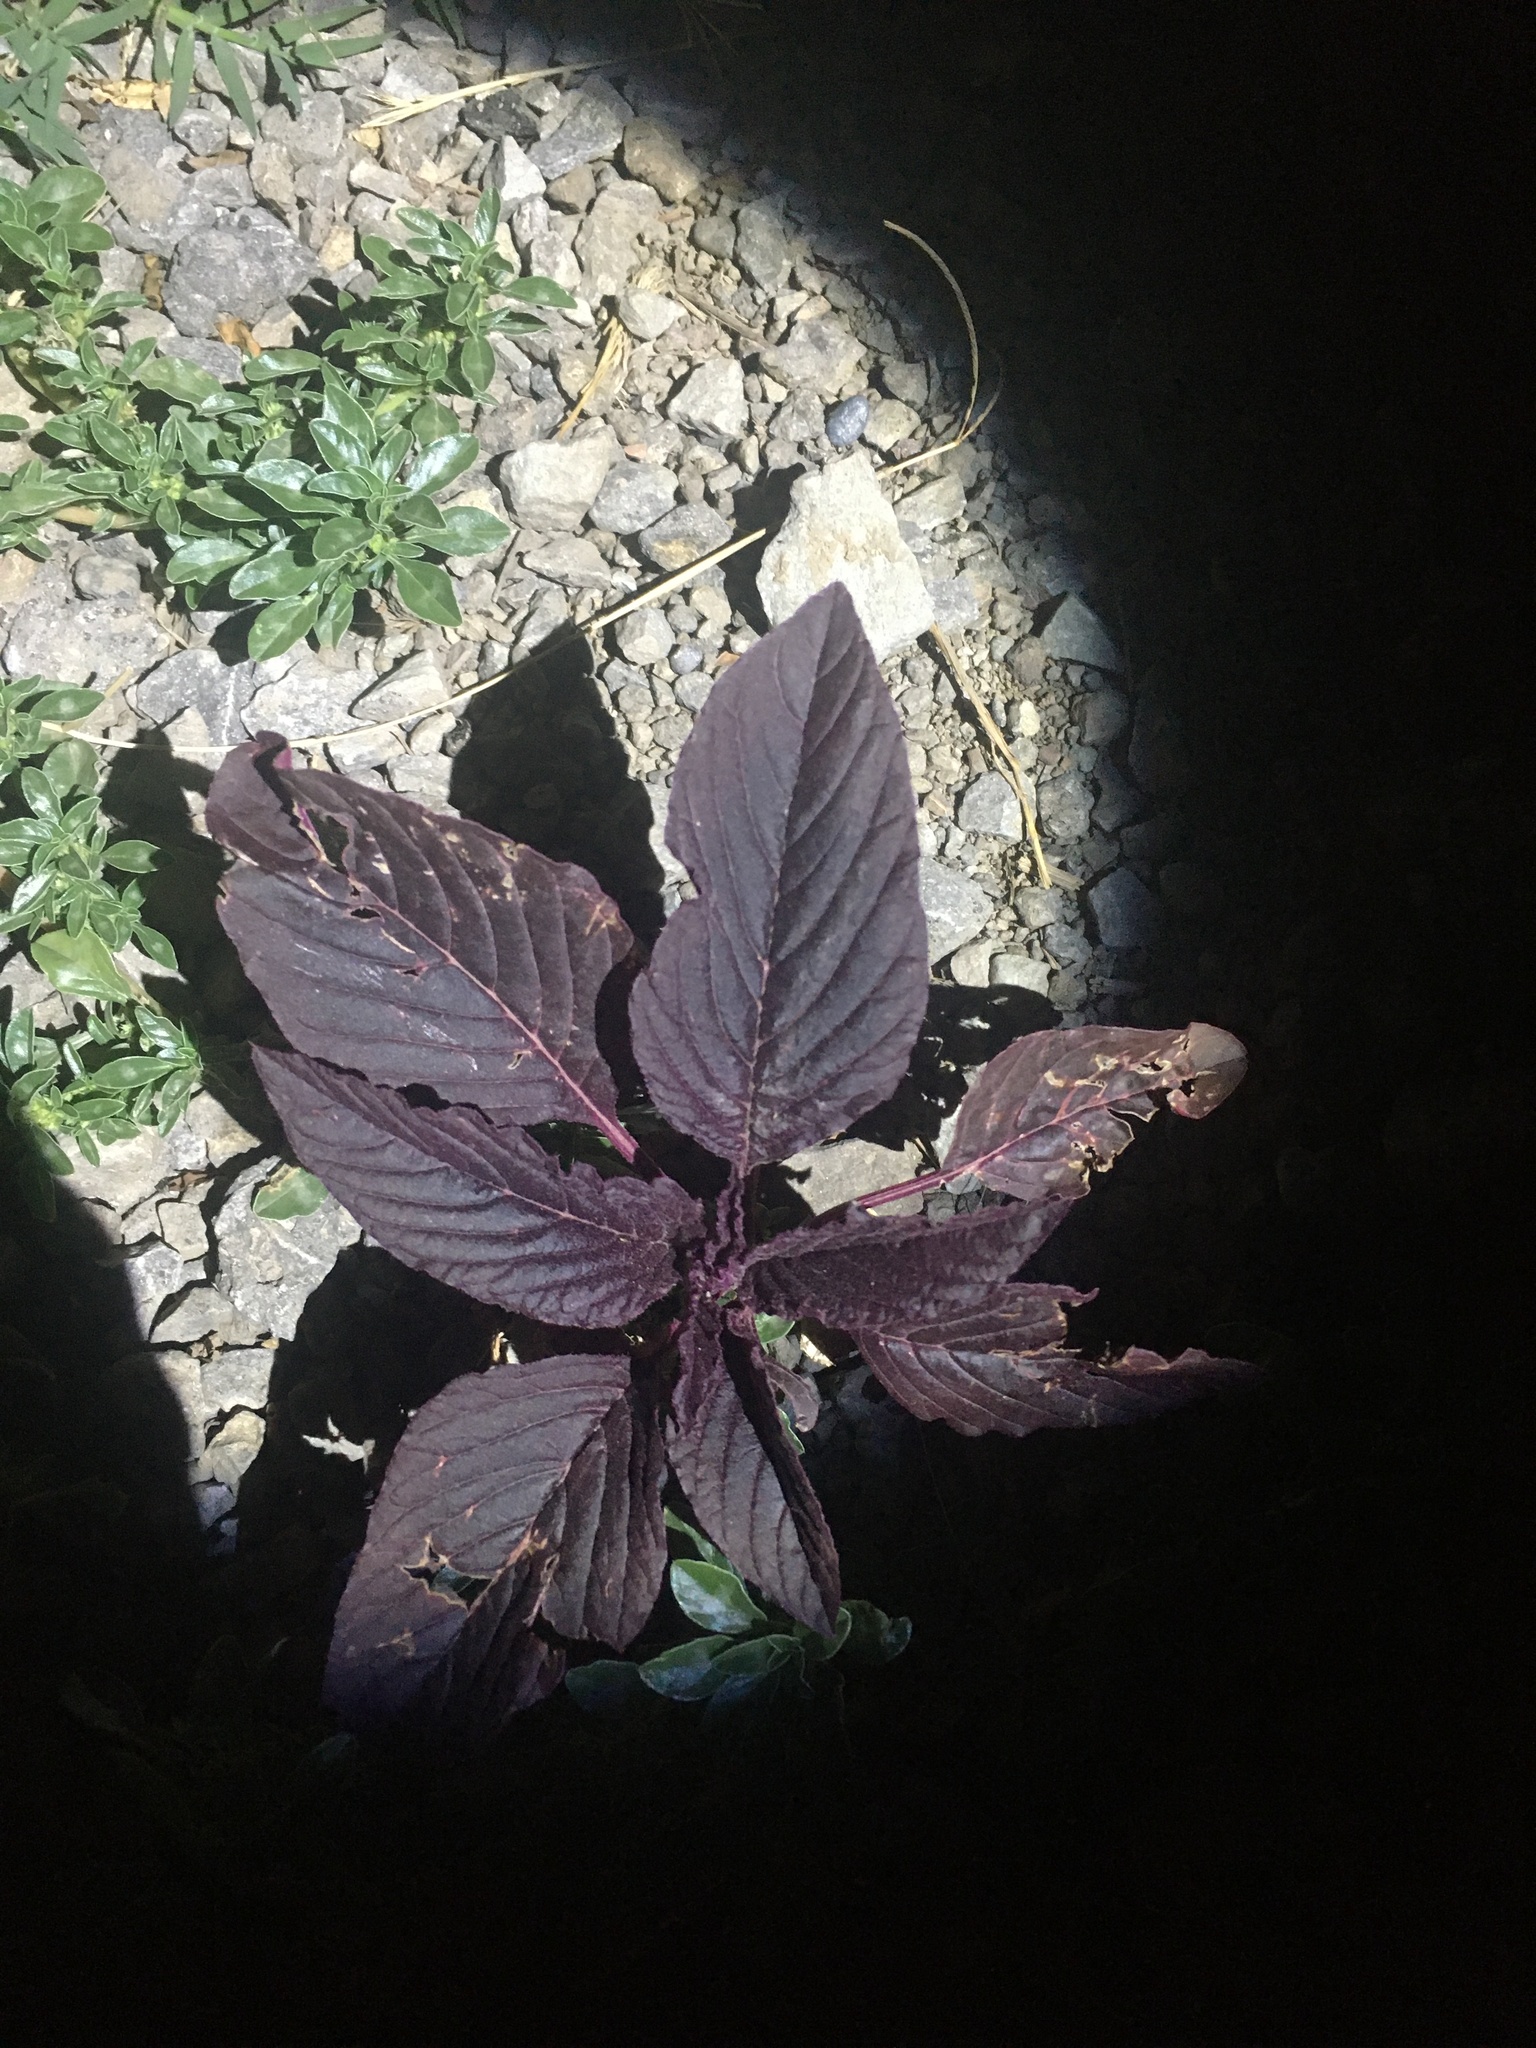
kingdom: Plantae
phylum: Tracheophyta
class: Magnoliopsida
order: Caryophyllales
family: Amaranthaceae
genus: Amaranthus
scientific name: Amaranthus cruentus
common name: Purple amaranth
